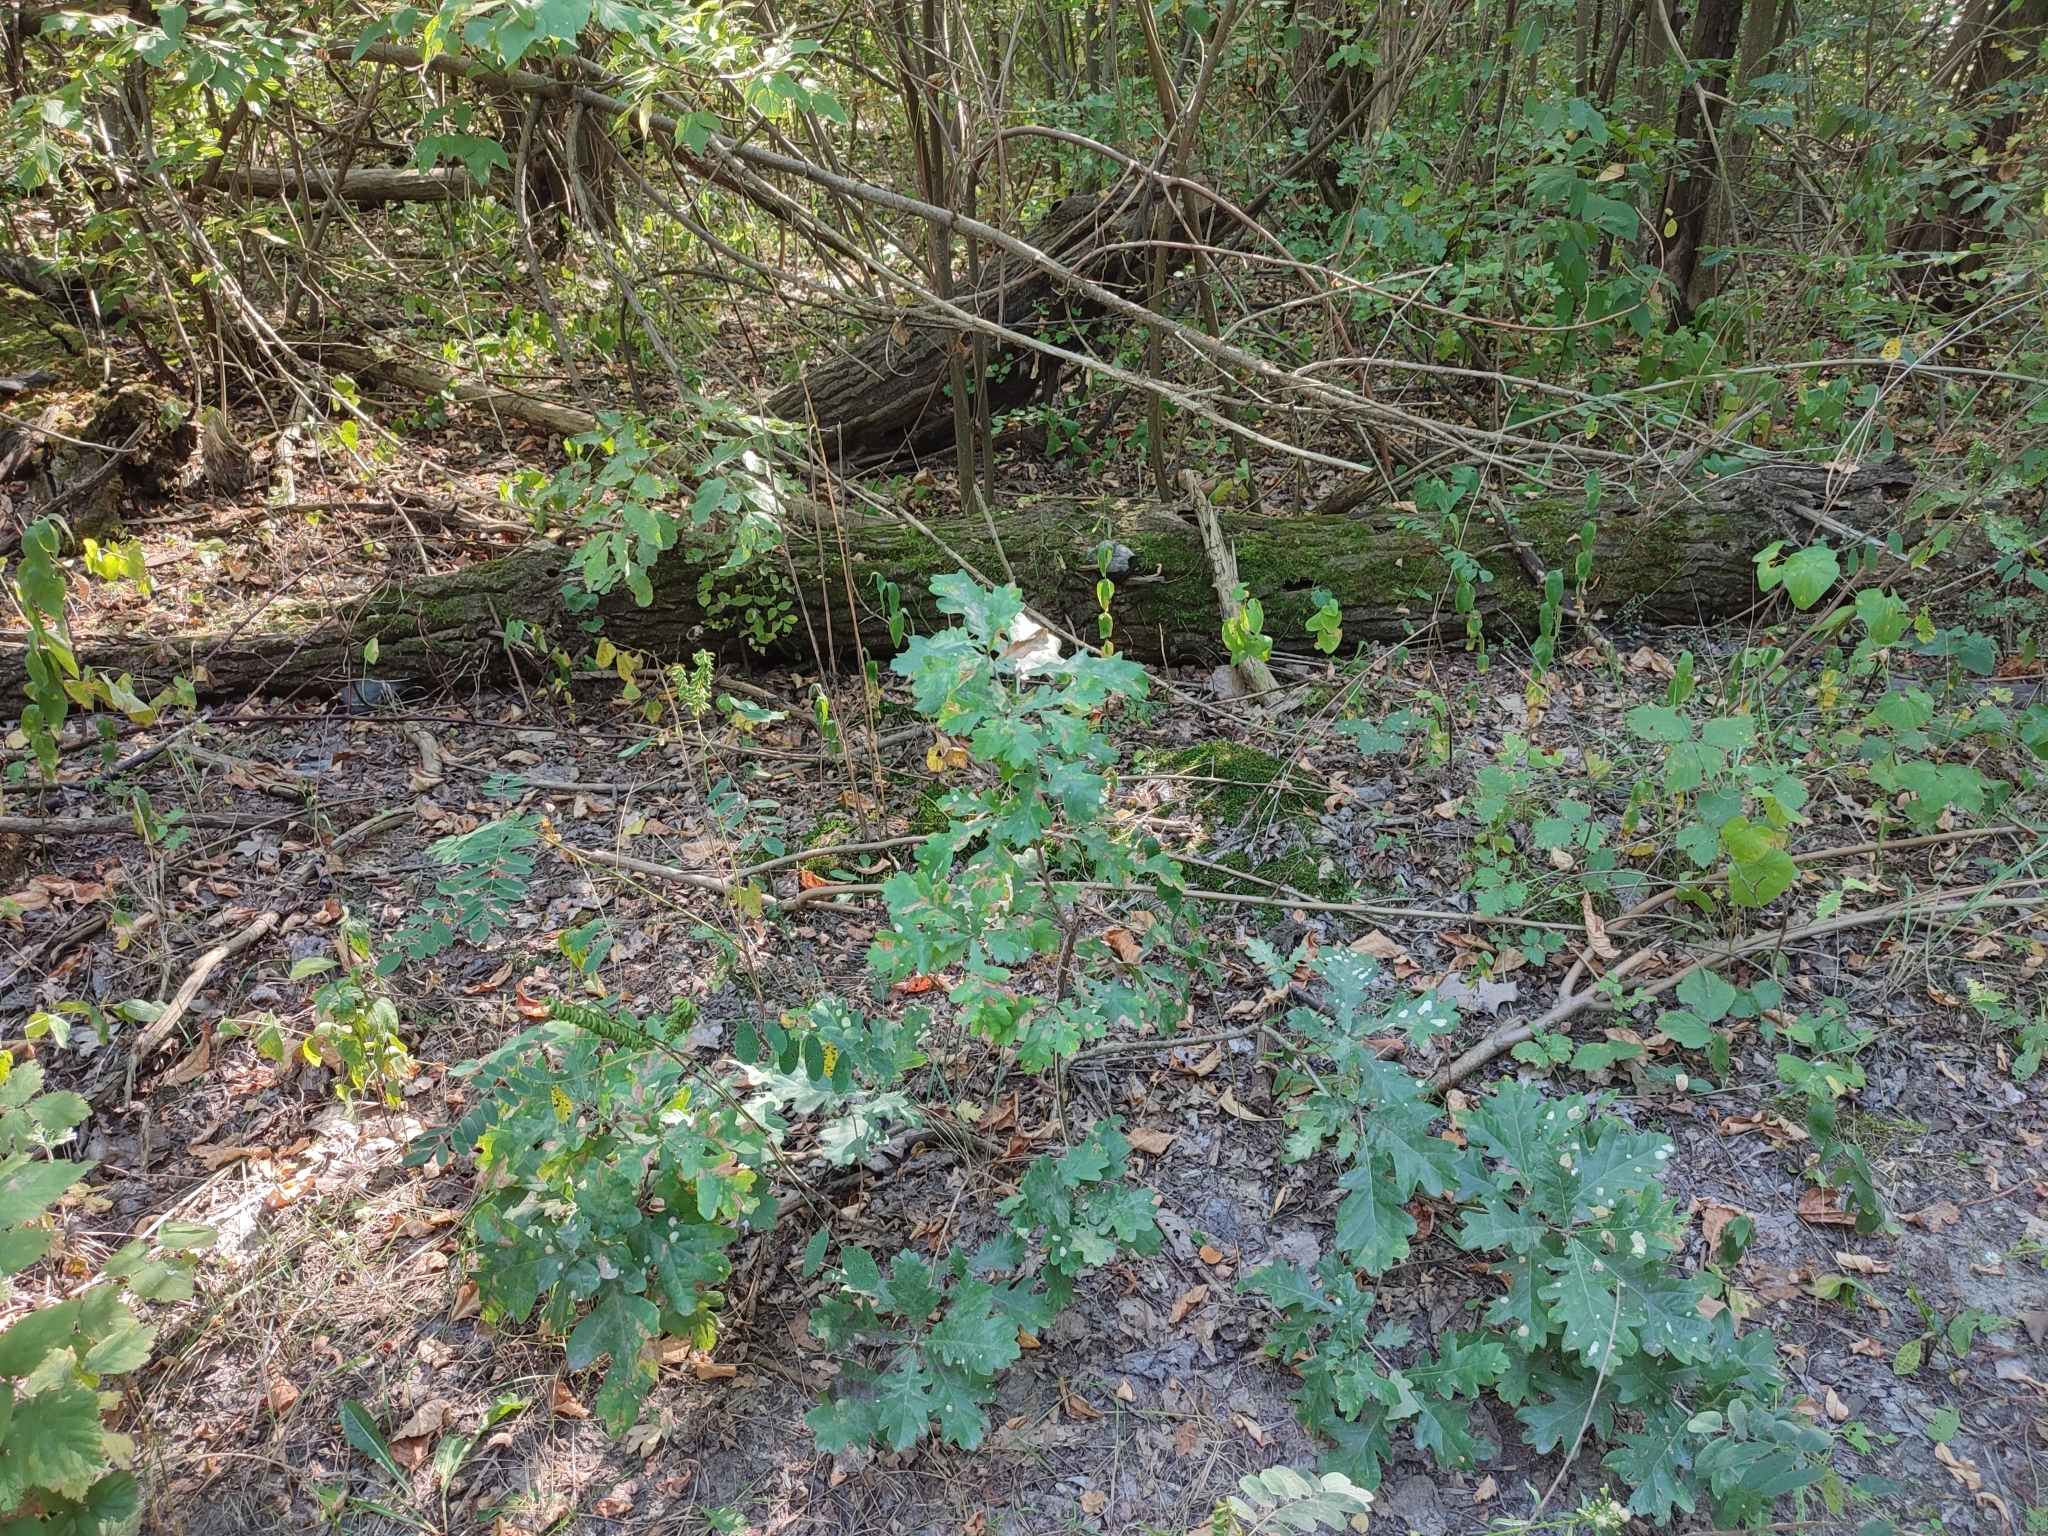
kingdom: Plantae
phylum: Tracheophyta
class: Magnoliopsida
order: Fagales
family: Fagaceae
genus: Quercus
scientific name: Quercus robur
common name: Pedunculate oak
